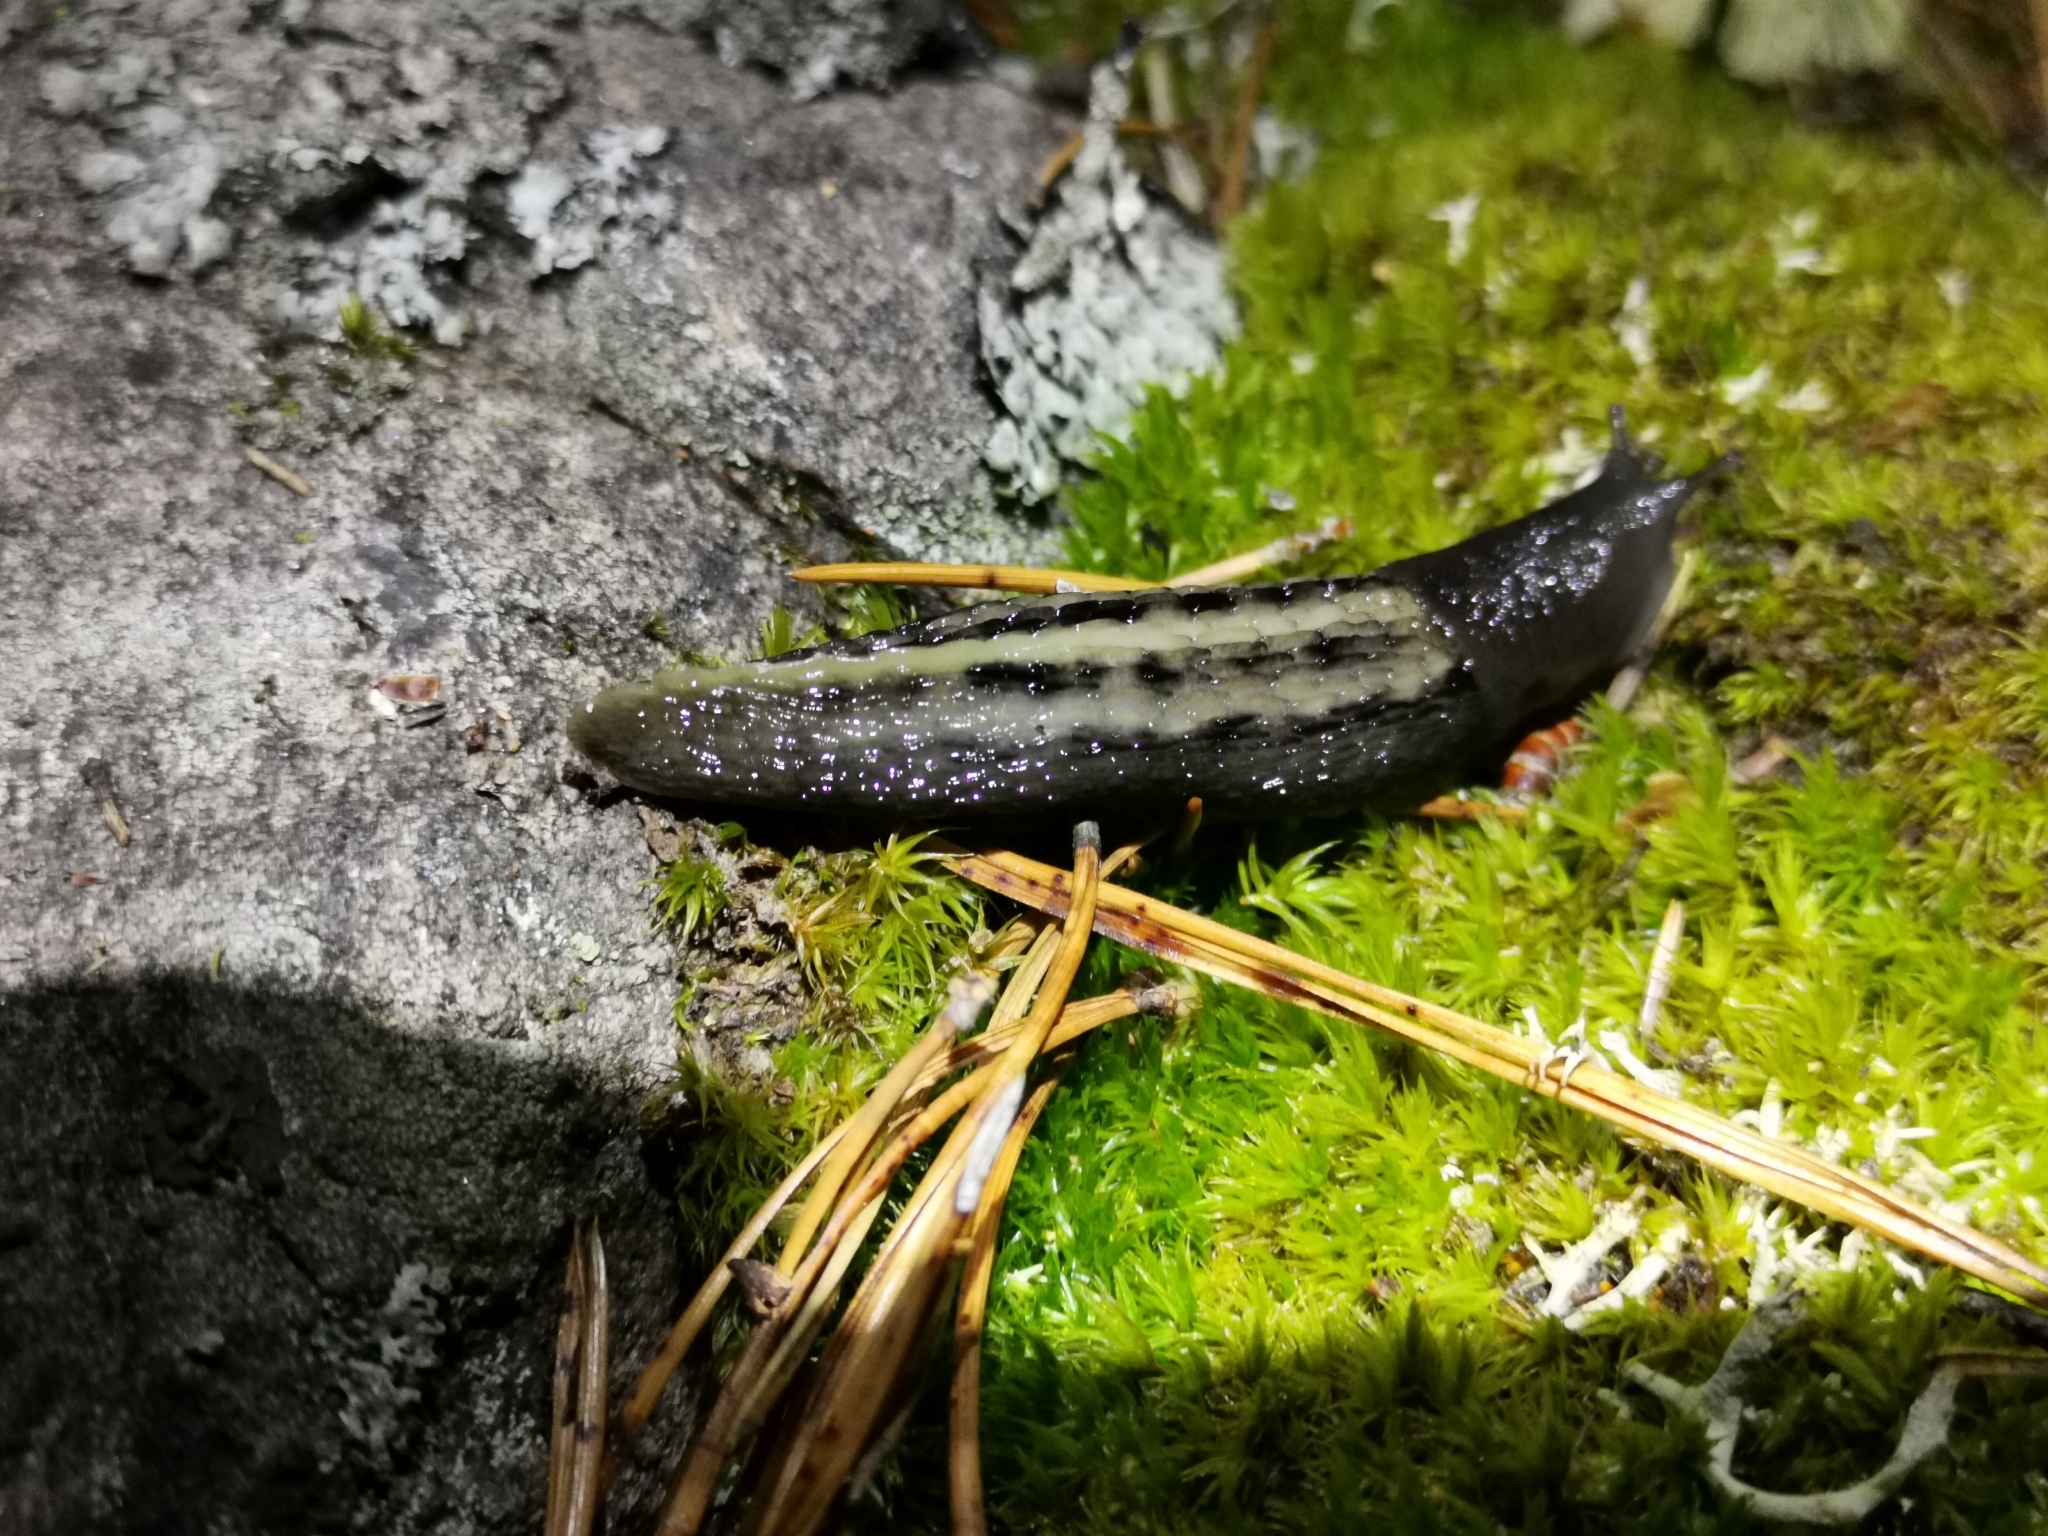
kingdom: Animalia
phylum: Mollusca
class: Gastropoda
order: Stylommatophora
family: Limacidae
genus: Limax
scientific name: Limax cinereoniger
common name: Ash-black slug
